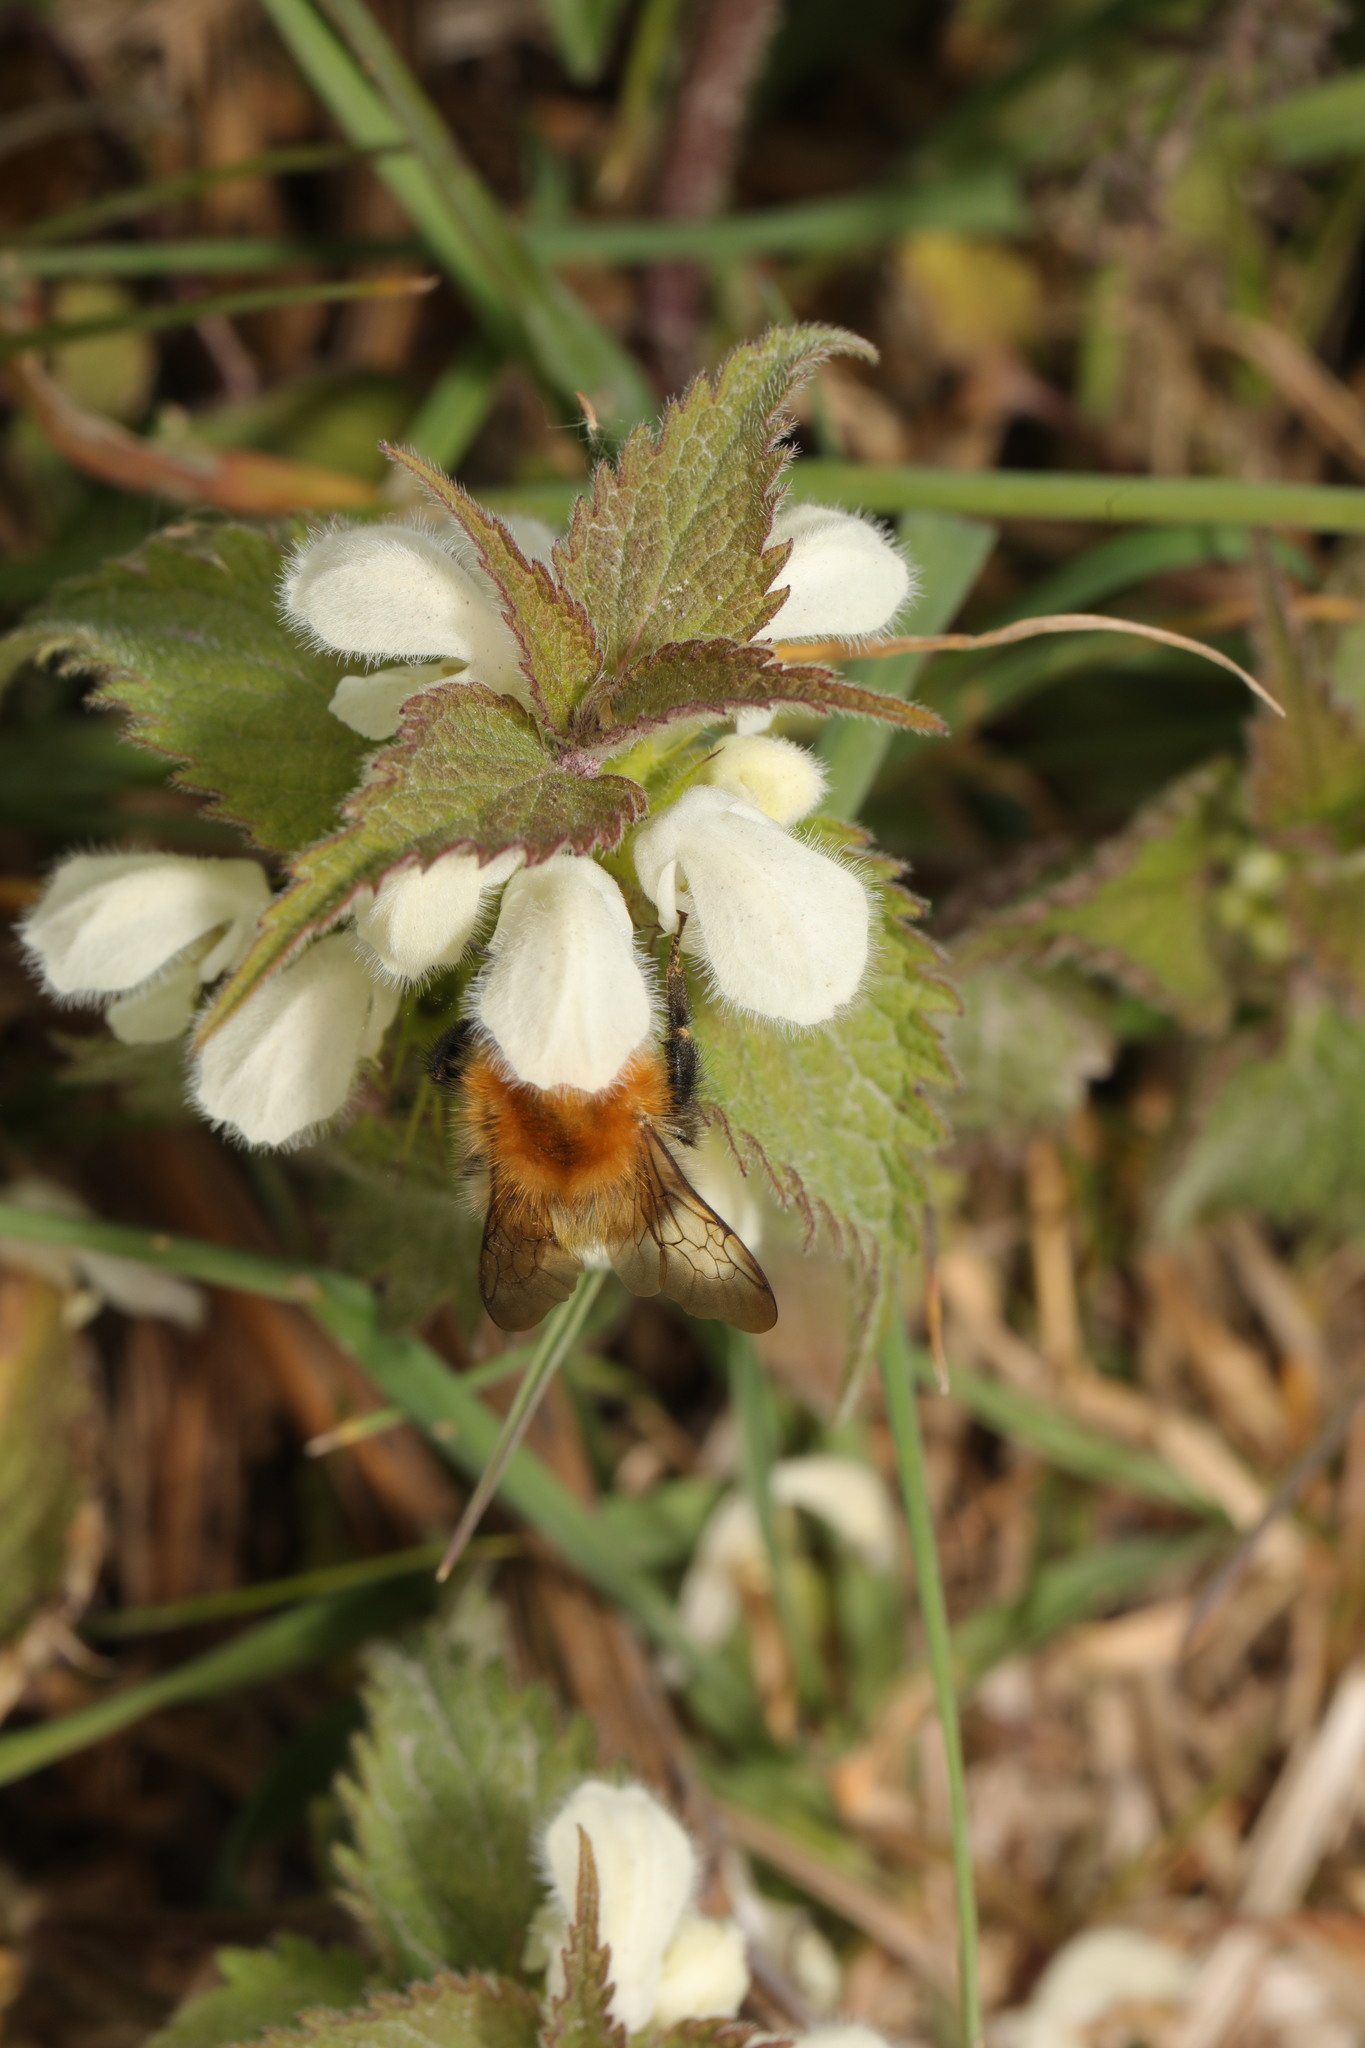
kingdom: Animalia
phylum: Arthropoda
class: Insecta
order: Hymenoptera
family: Apidae
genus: Bombus
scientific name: Bombus pascuorum
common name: Common carder bee
